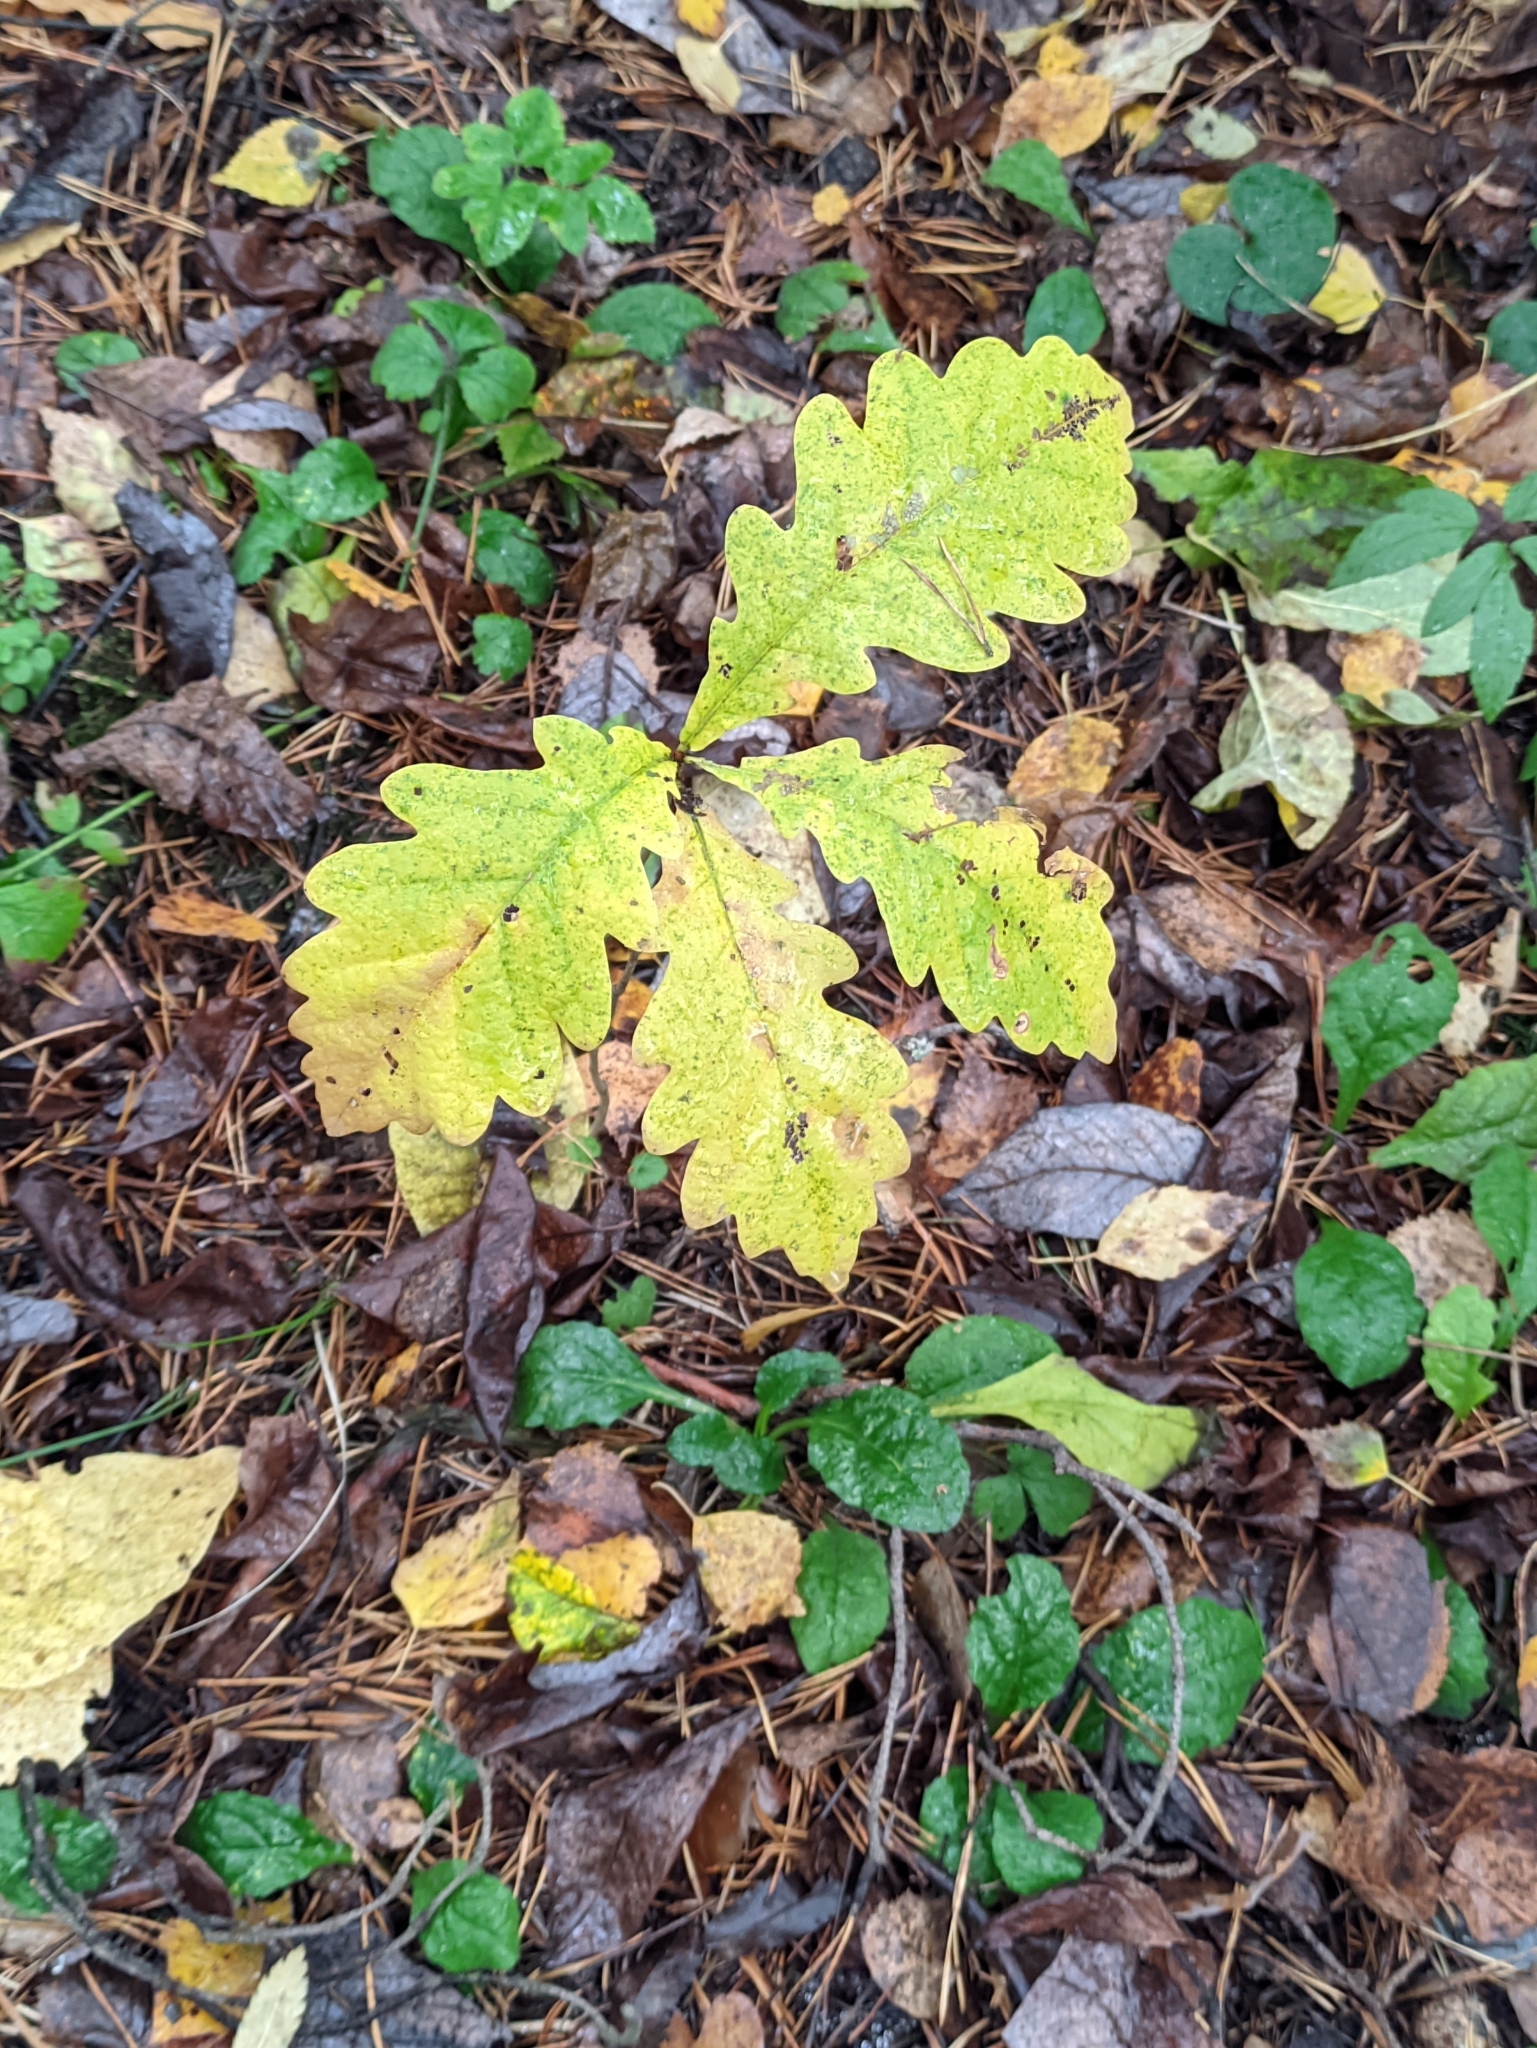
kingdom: Plantae
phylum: Tracheophyta
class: Magnoliopsida
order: Fagales
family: Fagaceae
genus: Quercus
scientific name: Quercus robur
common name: Pedunculate oak
